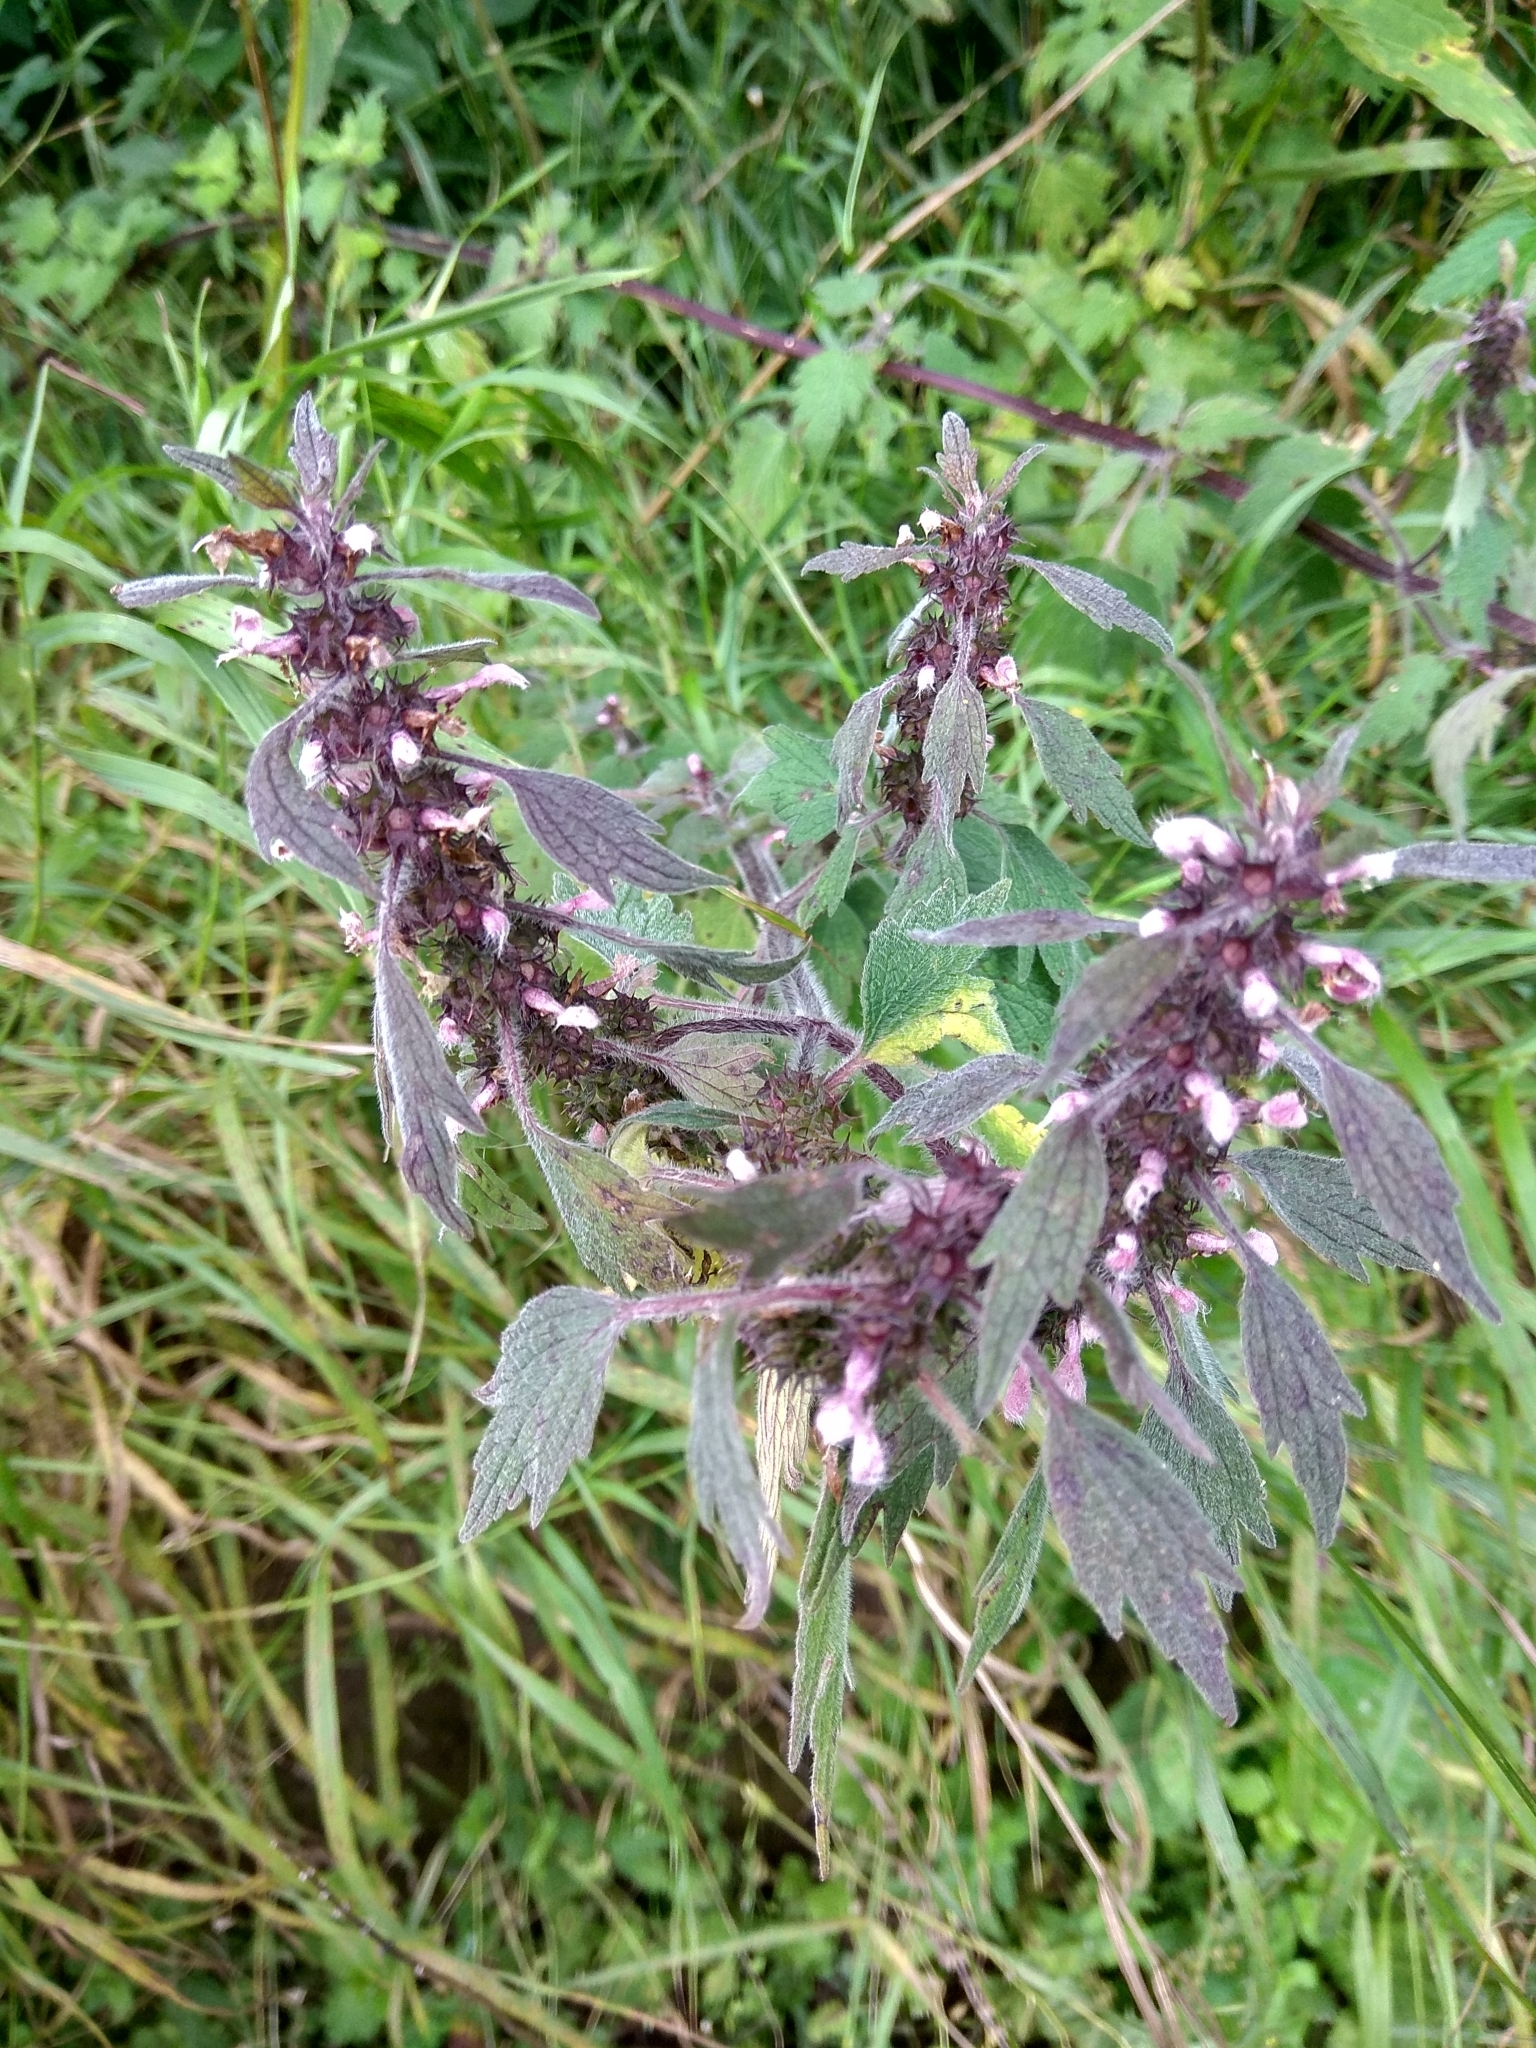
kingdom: Plantae
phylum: Tracheophyta
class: Magnoliopsida
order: Lamiales
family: Lamiaceae
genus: Leonurus
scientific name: Leonurus quinquelobatus
